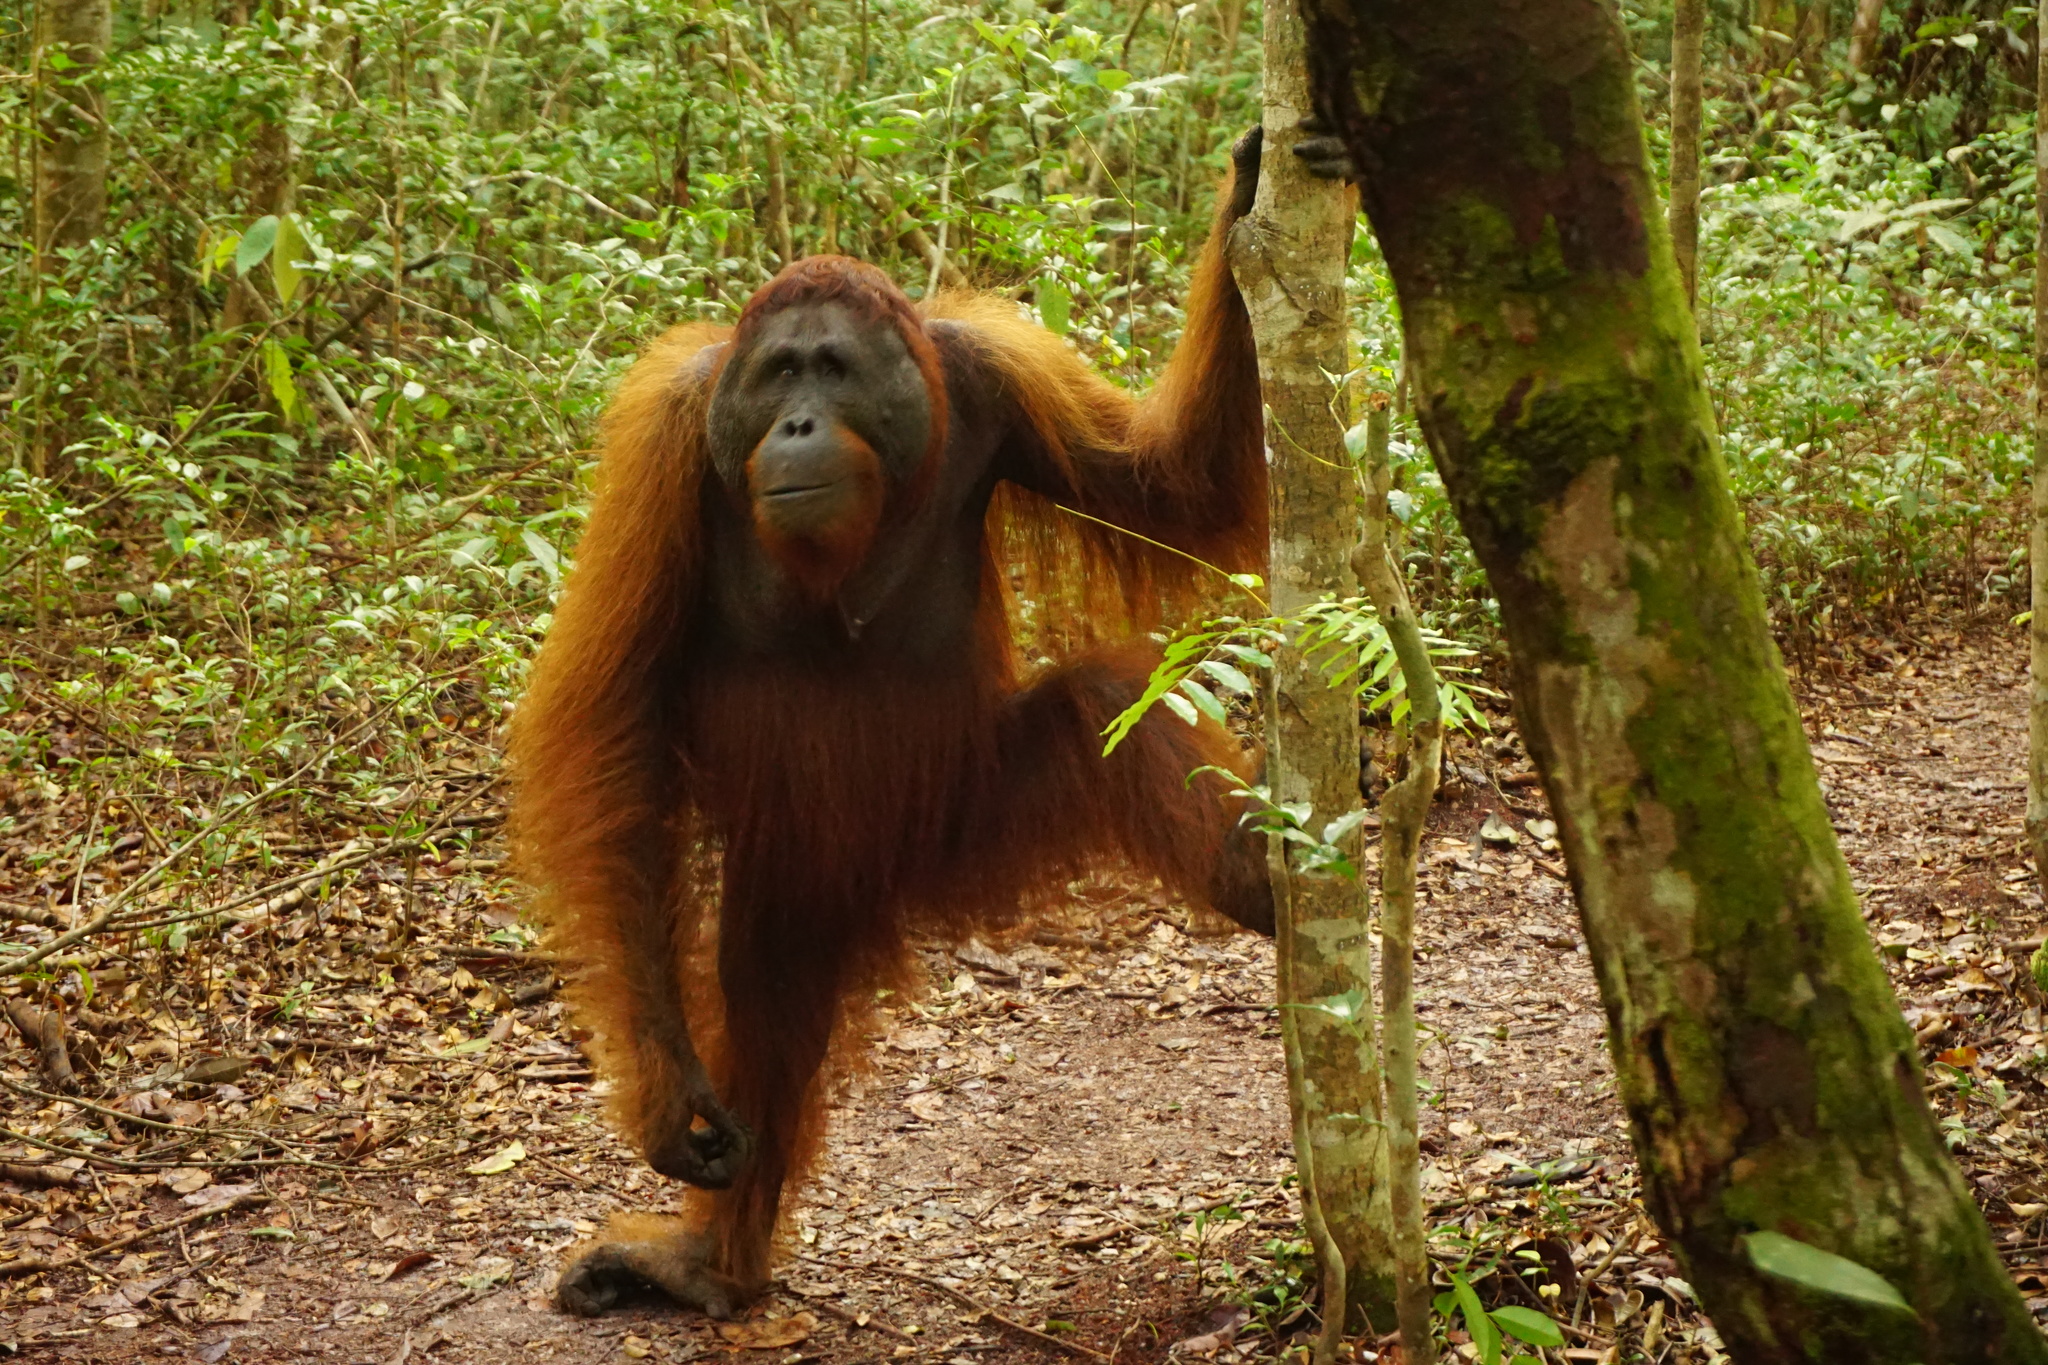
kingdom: Animalia
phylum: Chordata
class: Mammalia
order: Primates
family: Hominidae
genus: Pongo
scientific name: Pongo pygmaeus
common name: Bornean orangutan
